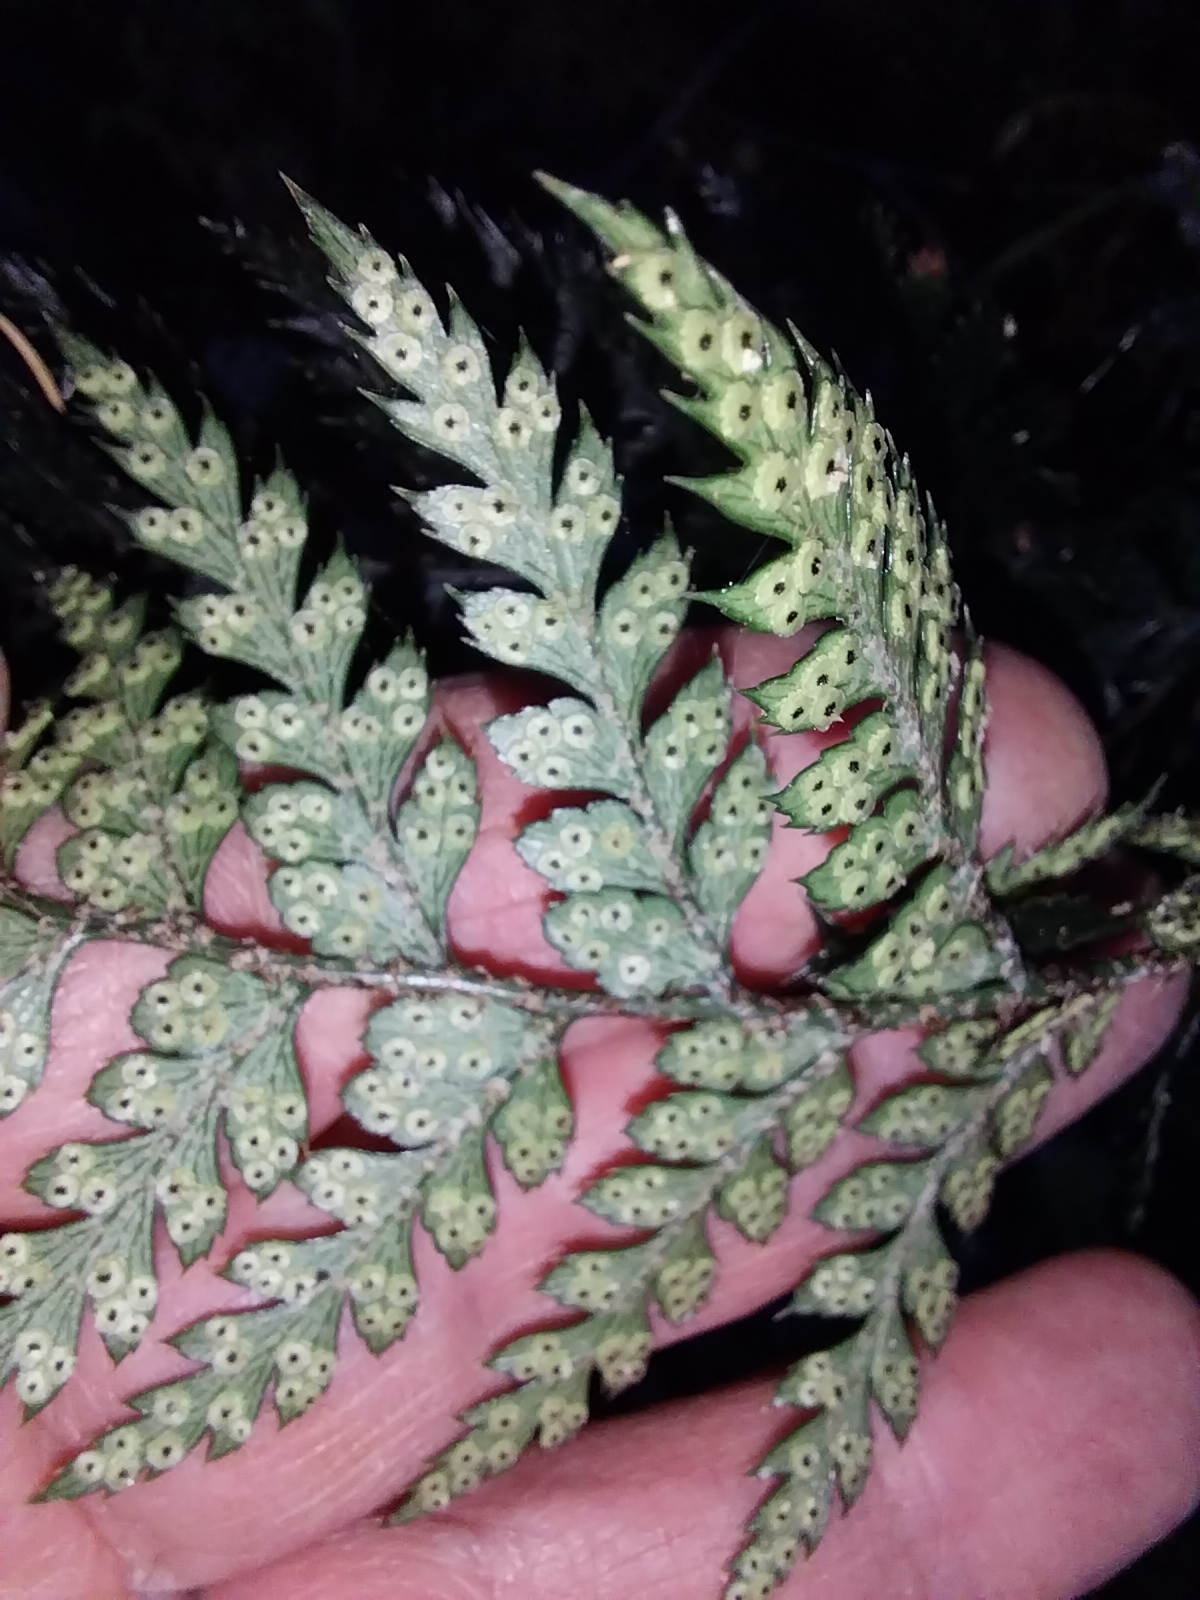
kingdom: Plantae
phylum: Tracheophyta
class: Polypodiopsida
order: Polypodiales
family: Dryopteridaceae
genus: Polystichum
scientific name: Polystichum oculatum
